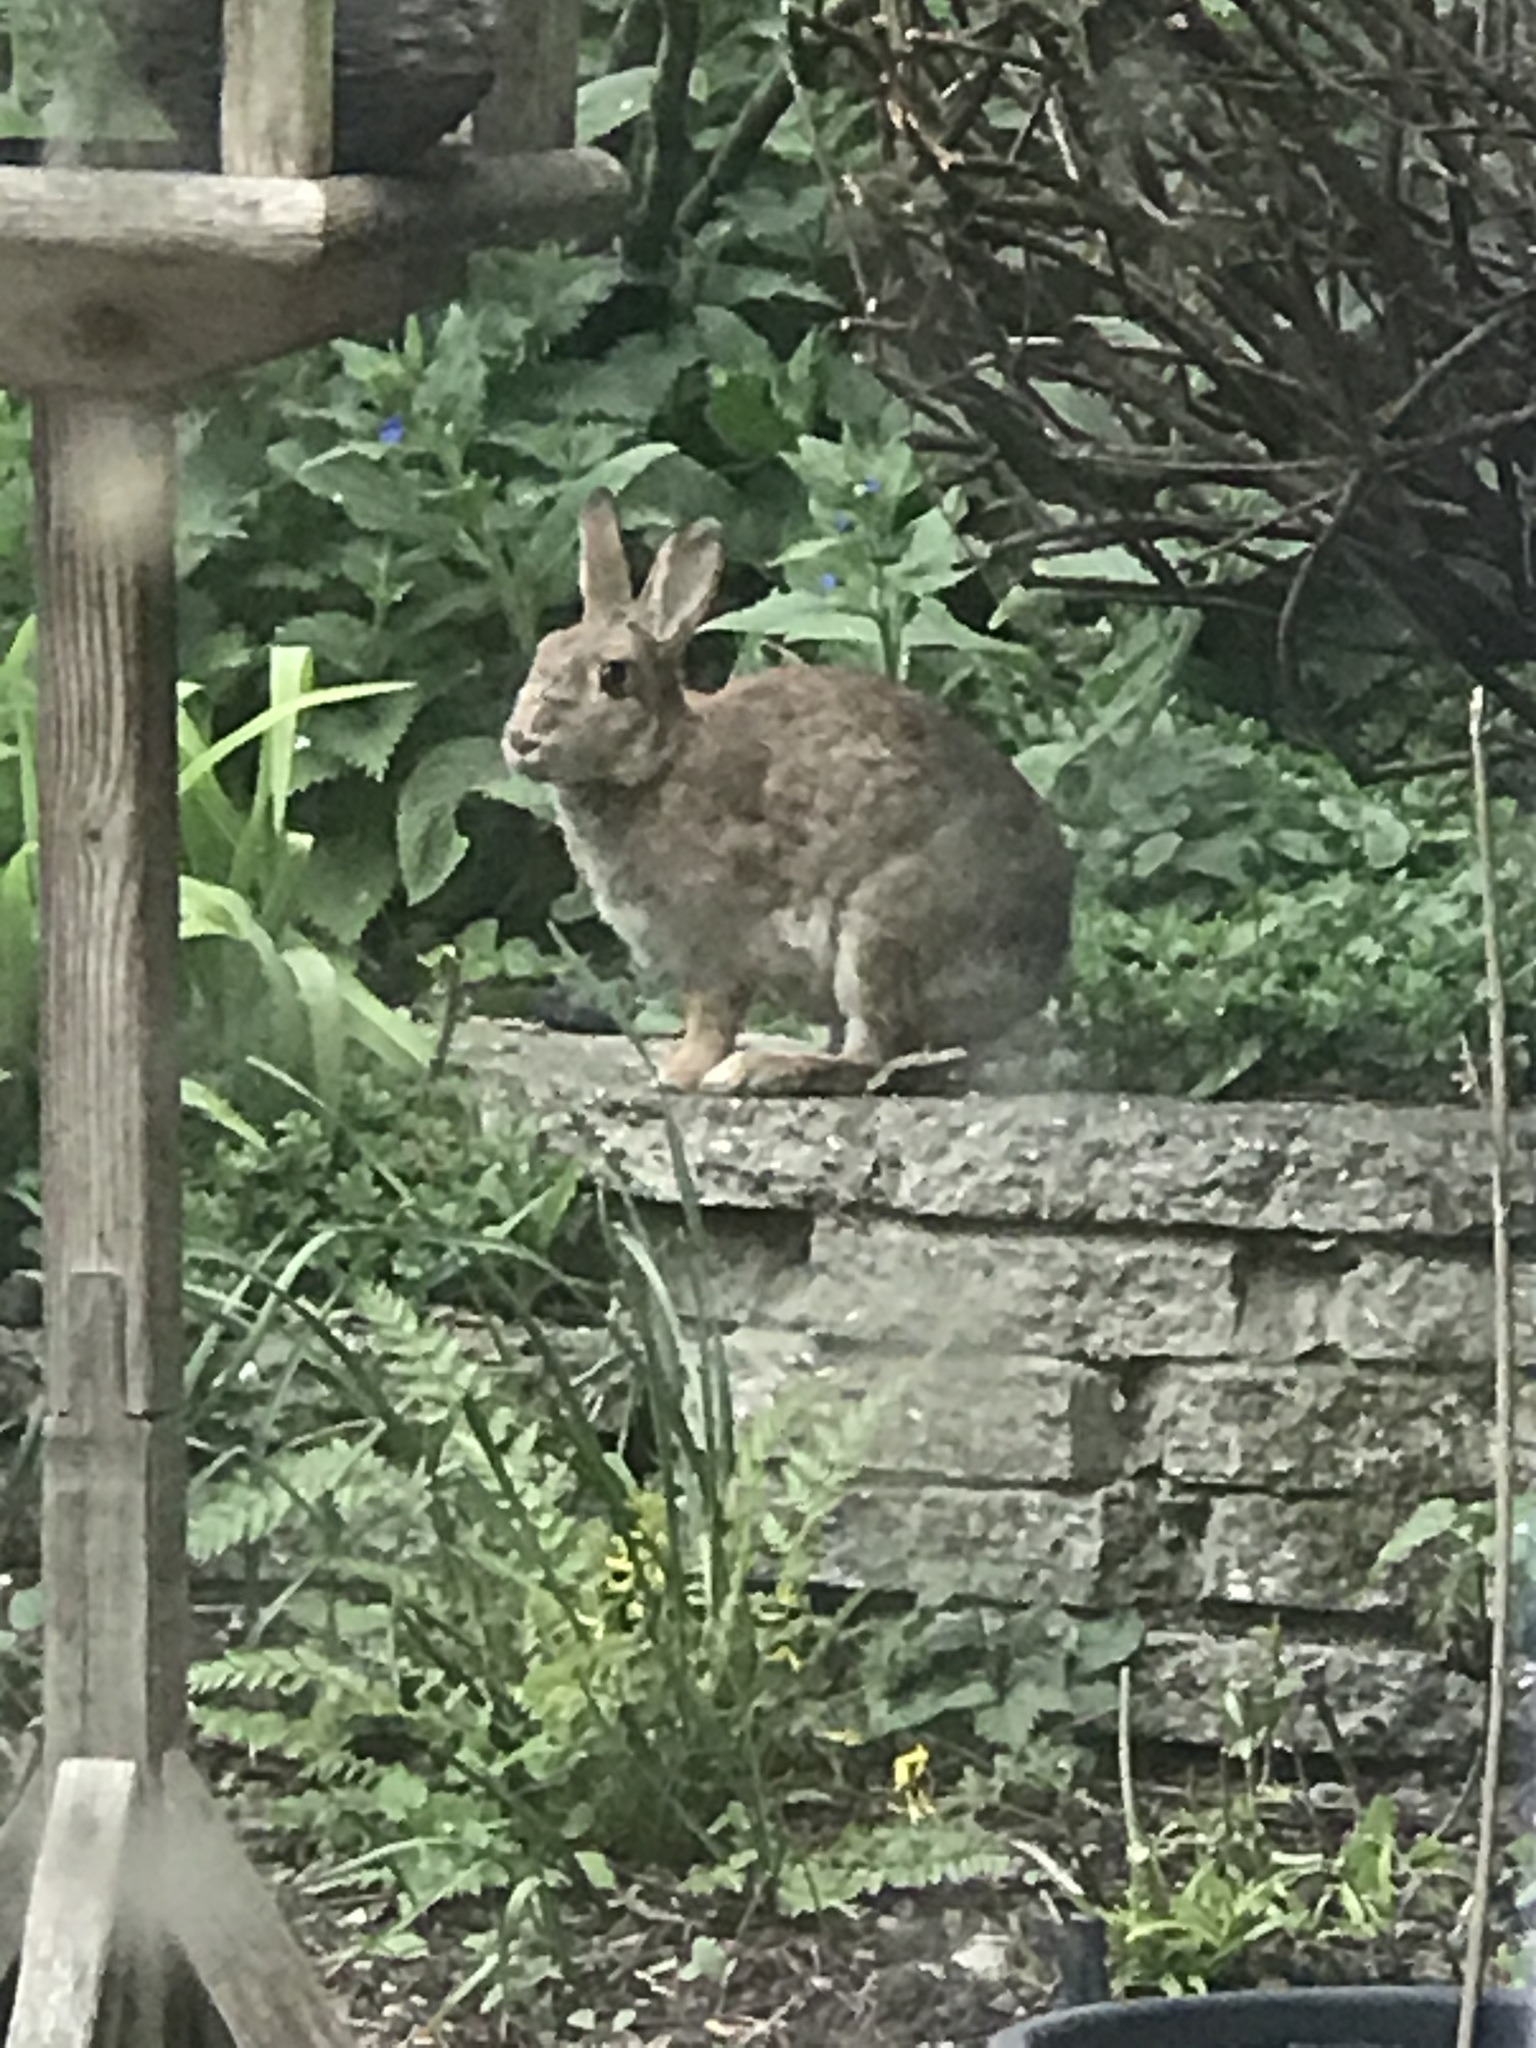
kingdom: Animalia
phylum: Chordata
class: Mammalia
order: Lagomorpha
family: Leporidae
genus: Oryctolagus
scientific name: Oryctolagus cuniculus
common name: European rabbit
